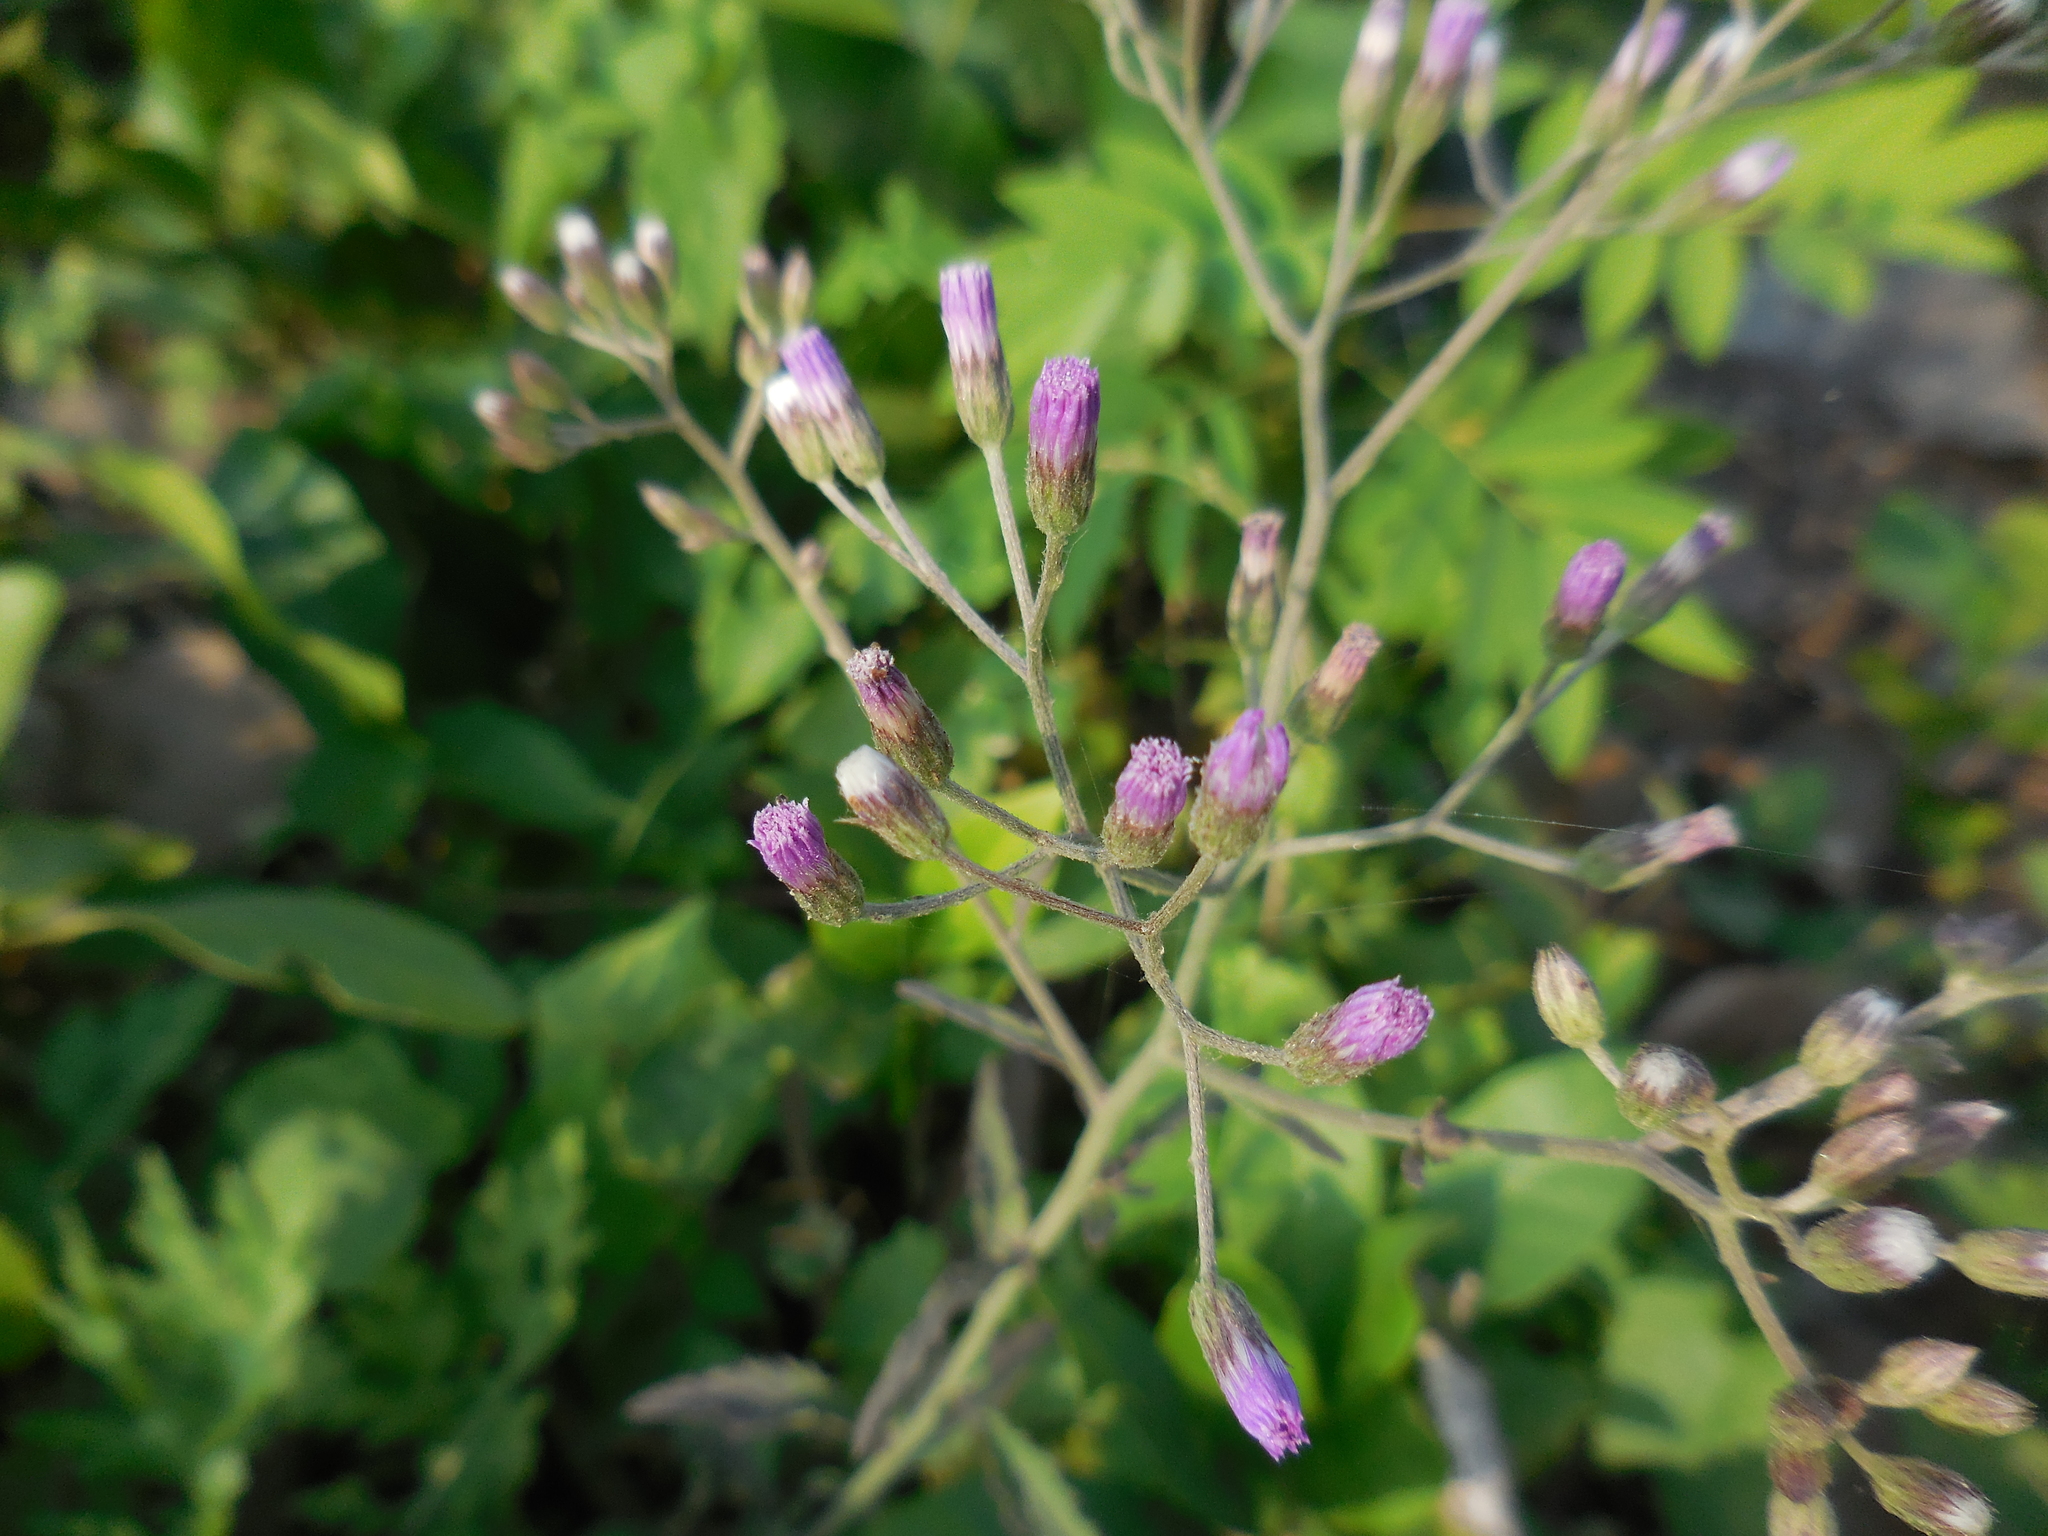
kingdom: Plantae
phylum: Tracheophyta
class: Magnoliopsida
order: Asterales
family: Asteraceae
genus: Cyanthillium
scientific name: Cyanthillium cinereum
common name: Little ironweed
